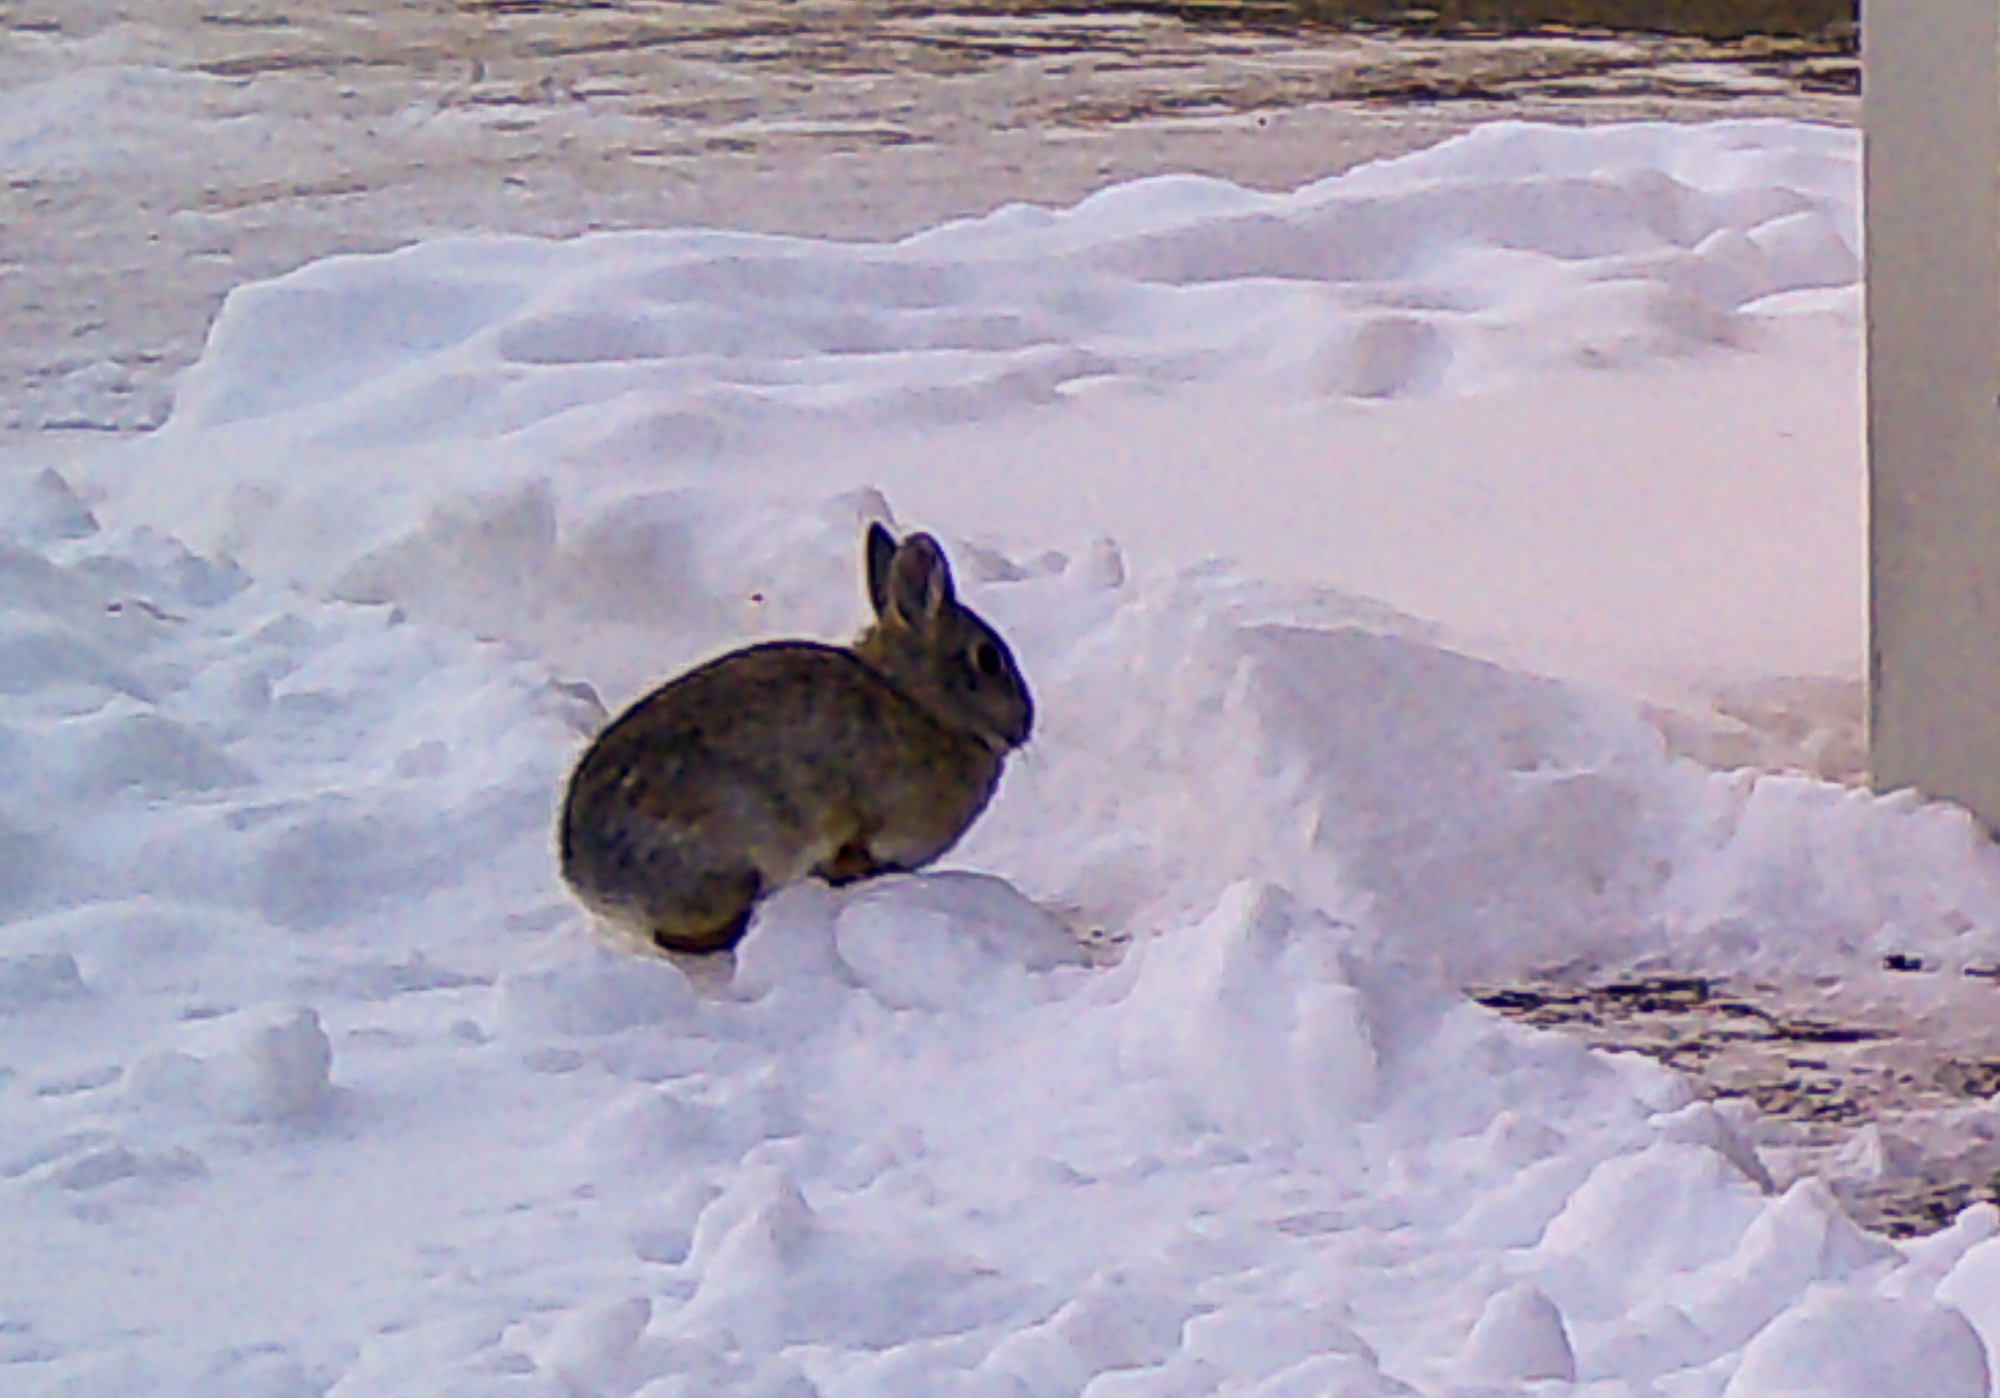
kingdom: Animalia
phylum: Chordata
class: Mammalia
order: Lagomorpha
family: Leporidae
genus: Sylvilagus
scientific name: Sylvilagus nuttallii
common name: Mountain cottontail
